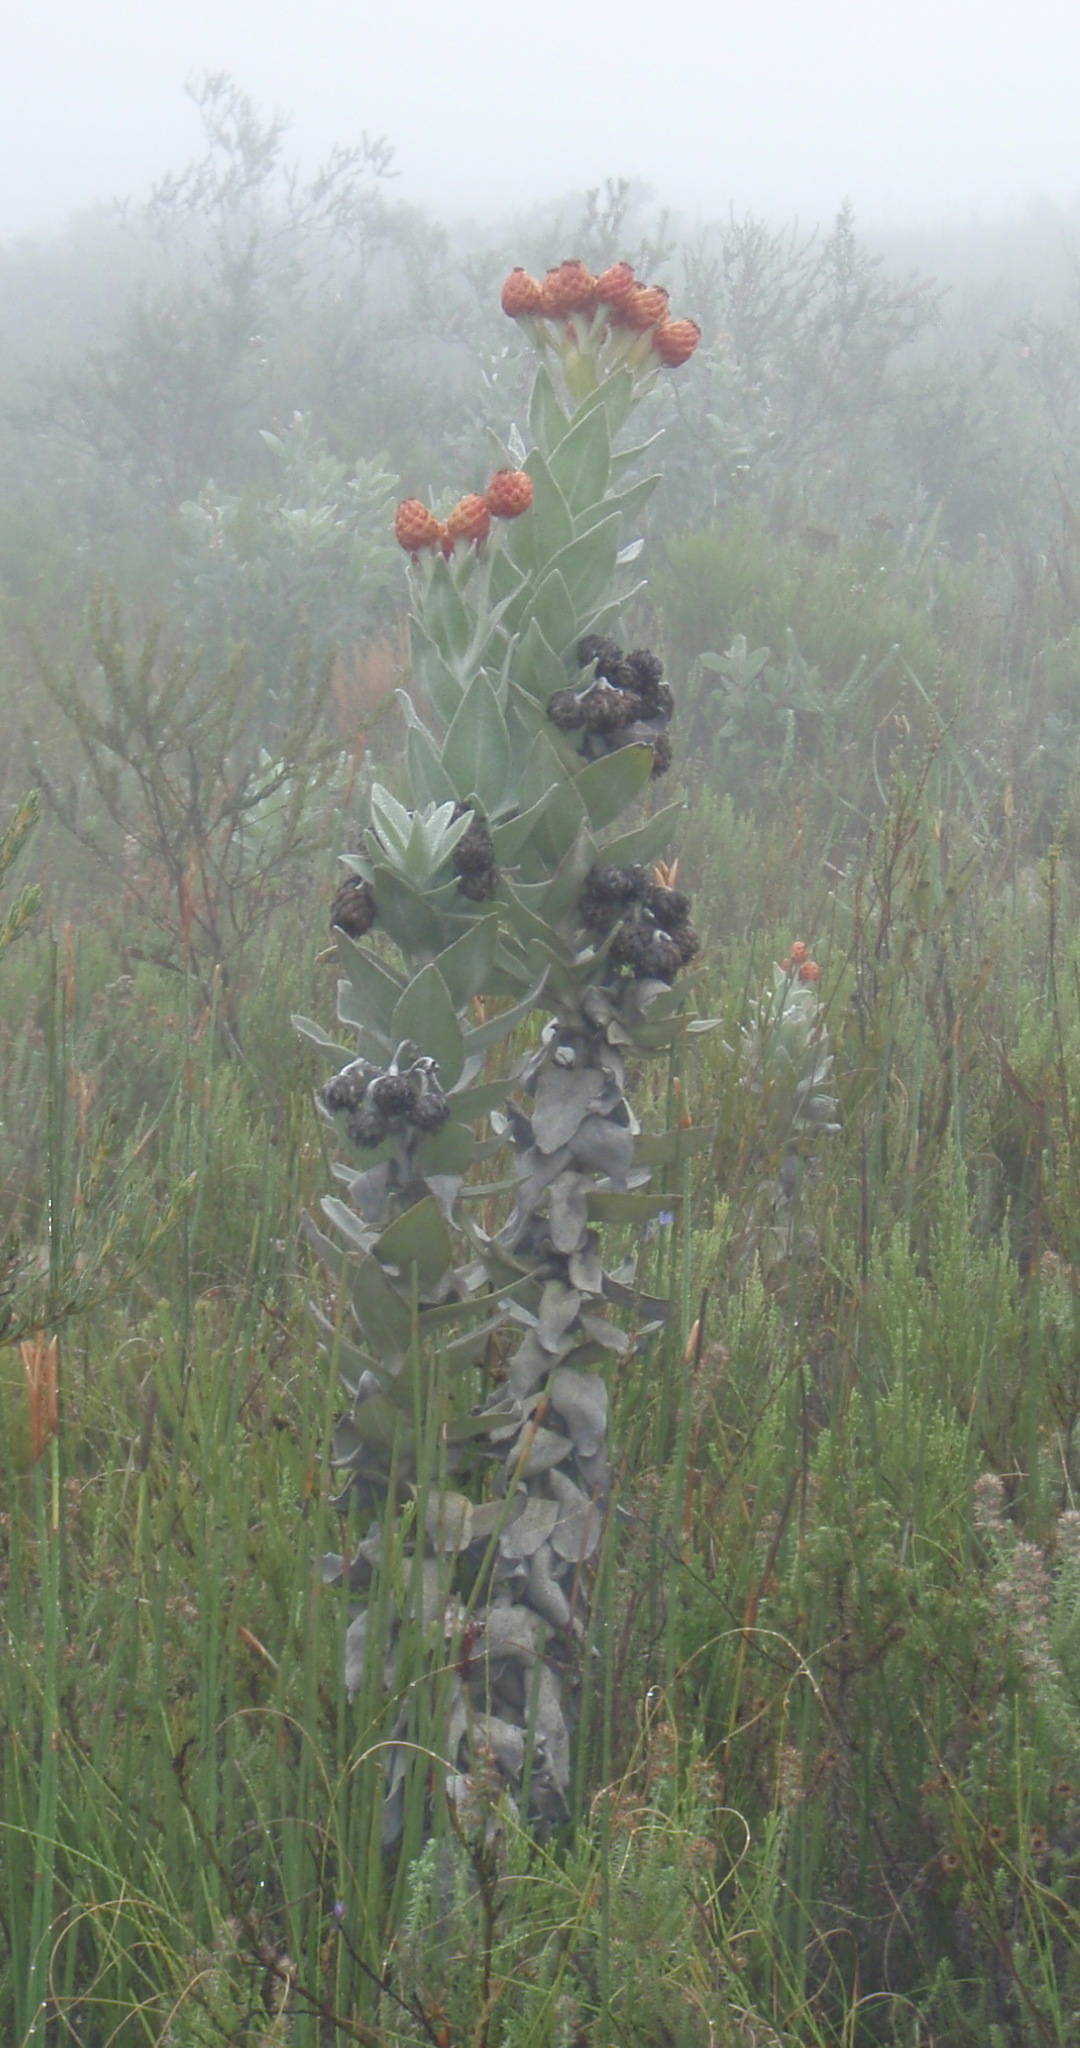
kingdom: Plantae
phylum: Tracheophyta
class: Magnoliopsida
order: Asterales
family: Asteraceae
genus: Syncarpha
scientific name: Syncarpha eximia
